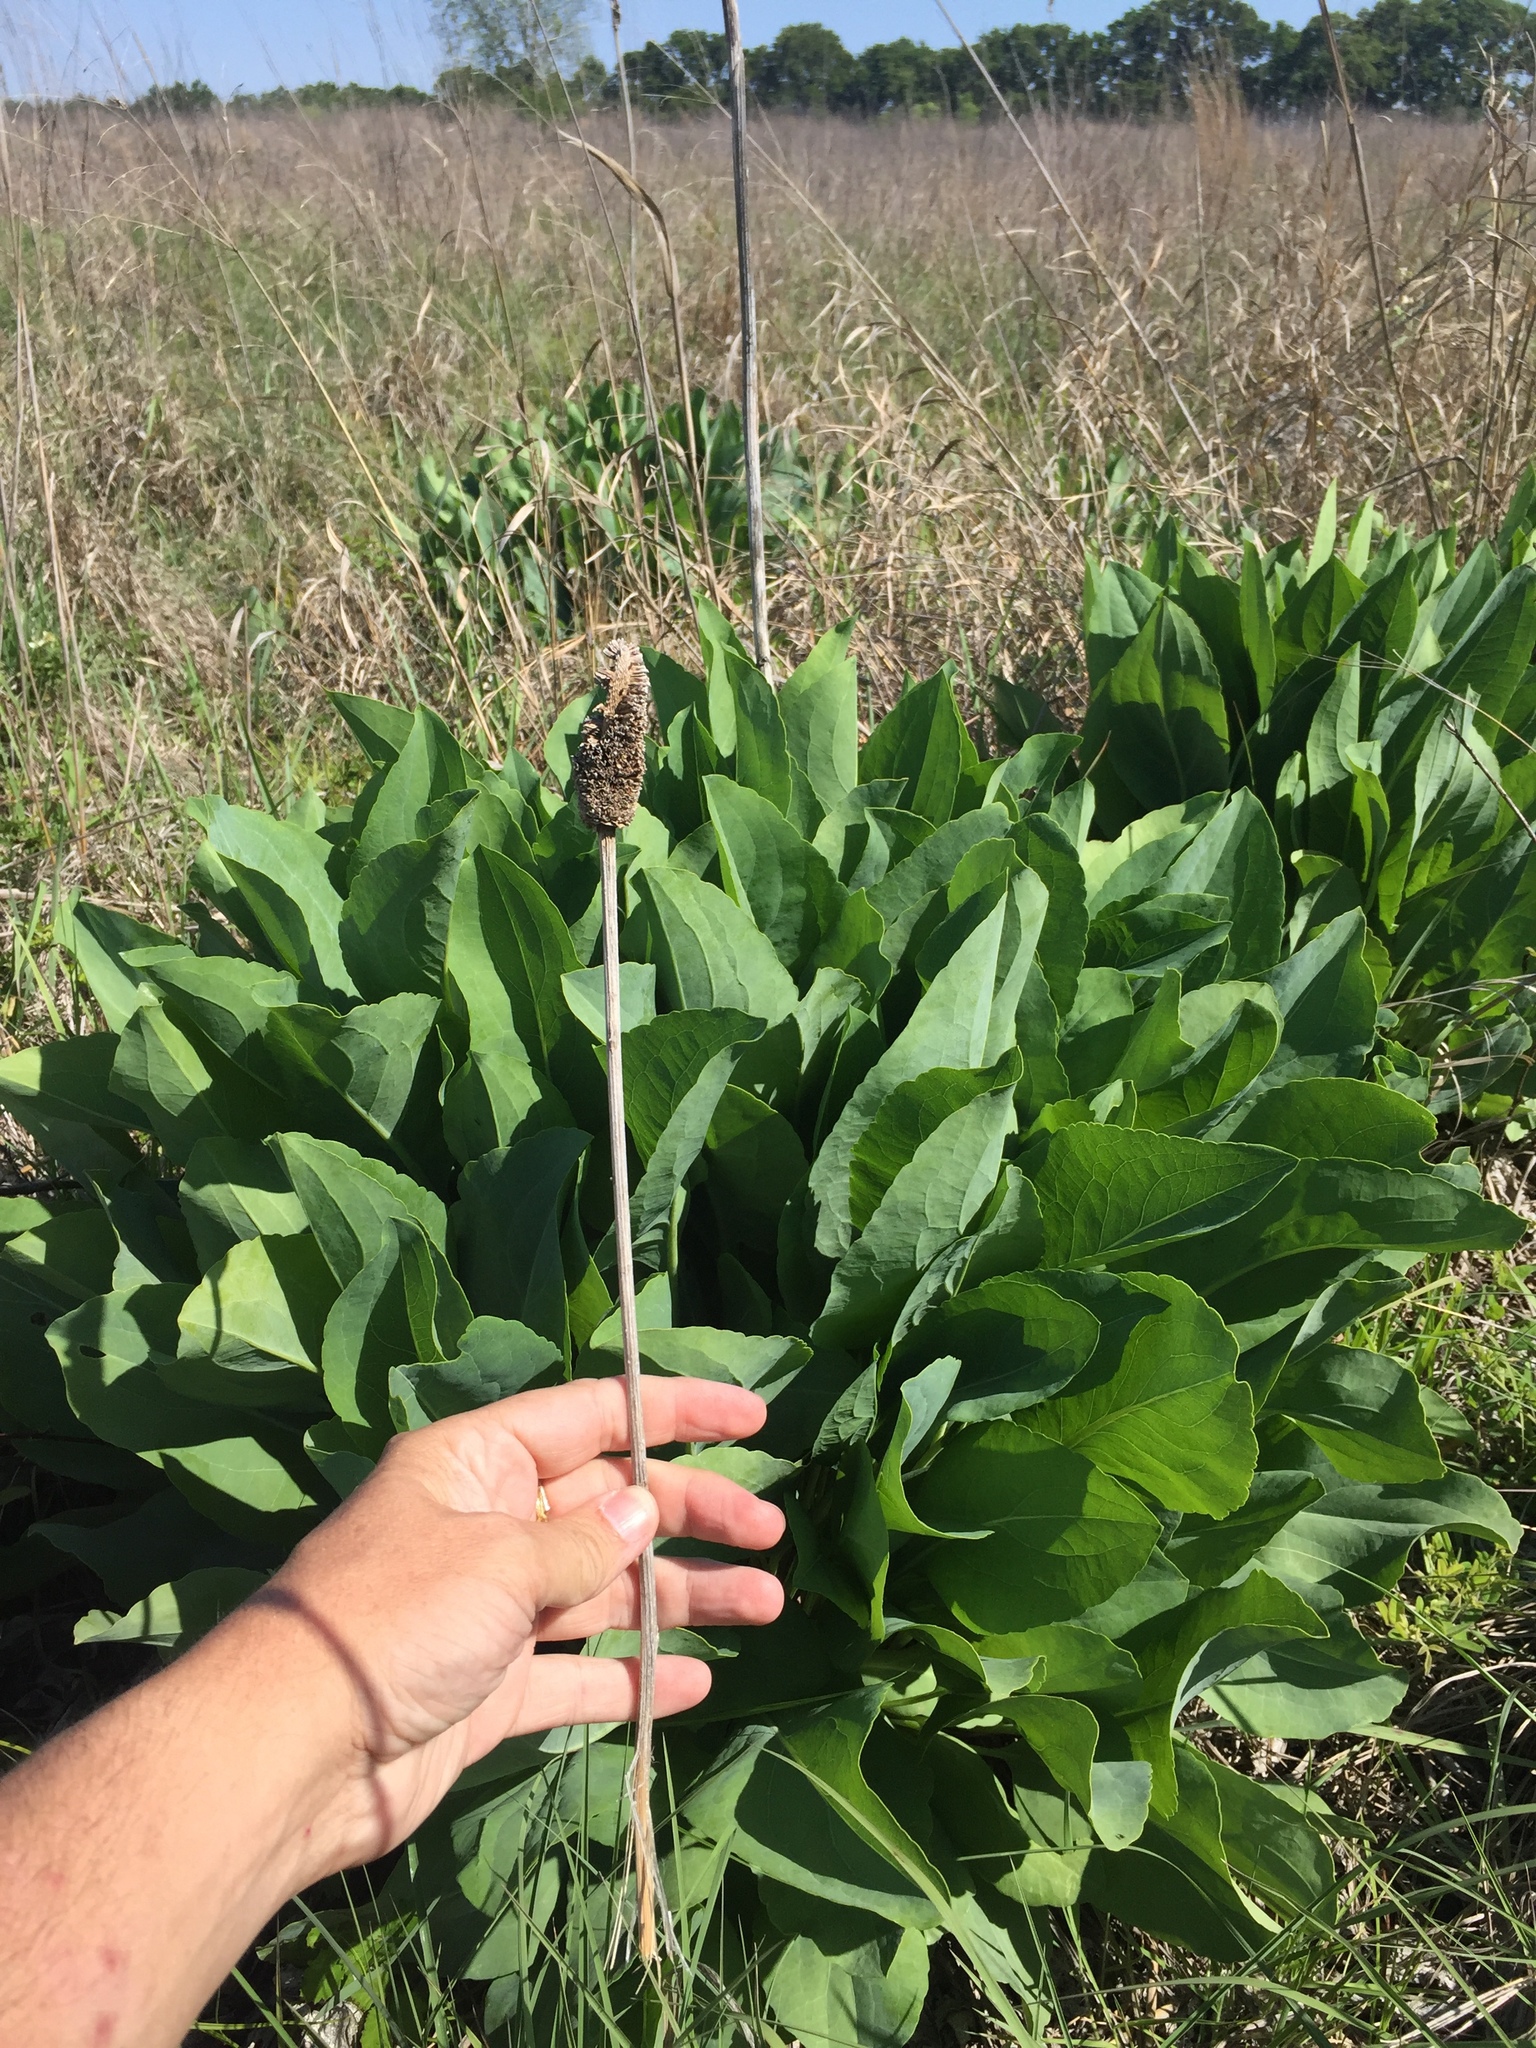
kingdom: Plantae
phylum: Tracheophyta
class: Magnoliopsida
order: Asterales
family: Asteraceae
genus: Rudbeckia
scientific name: Rudbeckia maxima
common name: Cabbage coneflower
